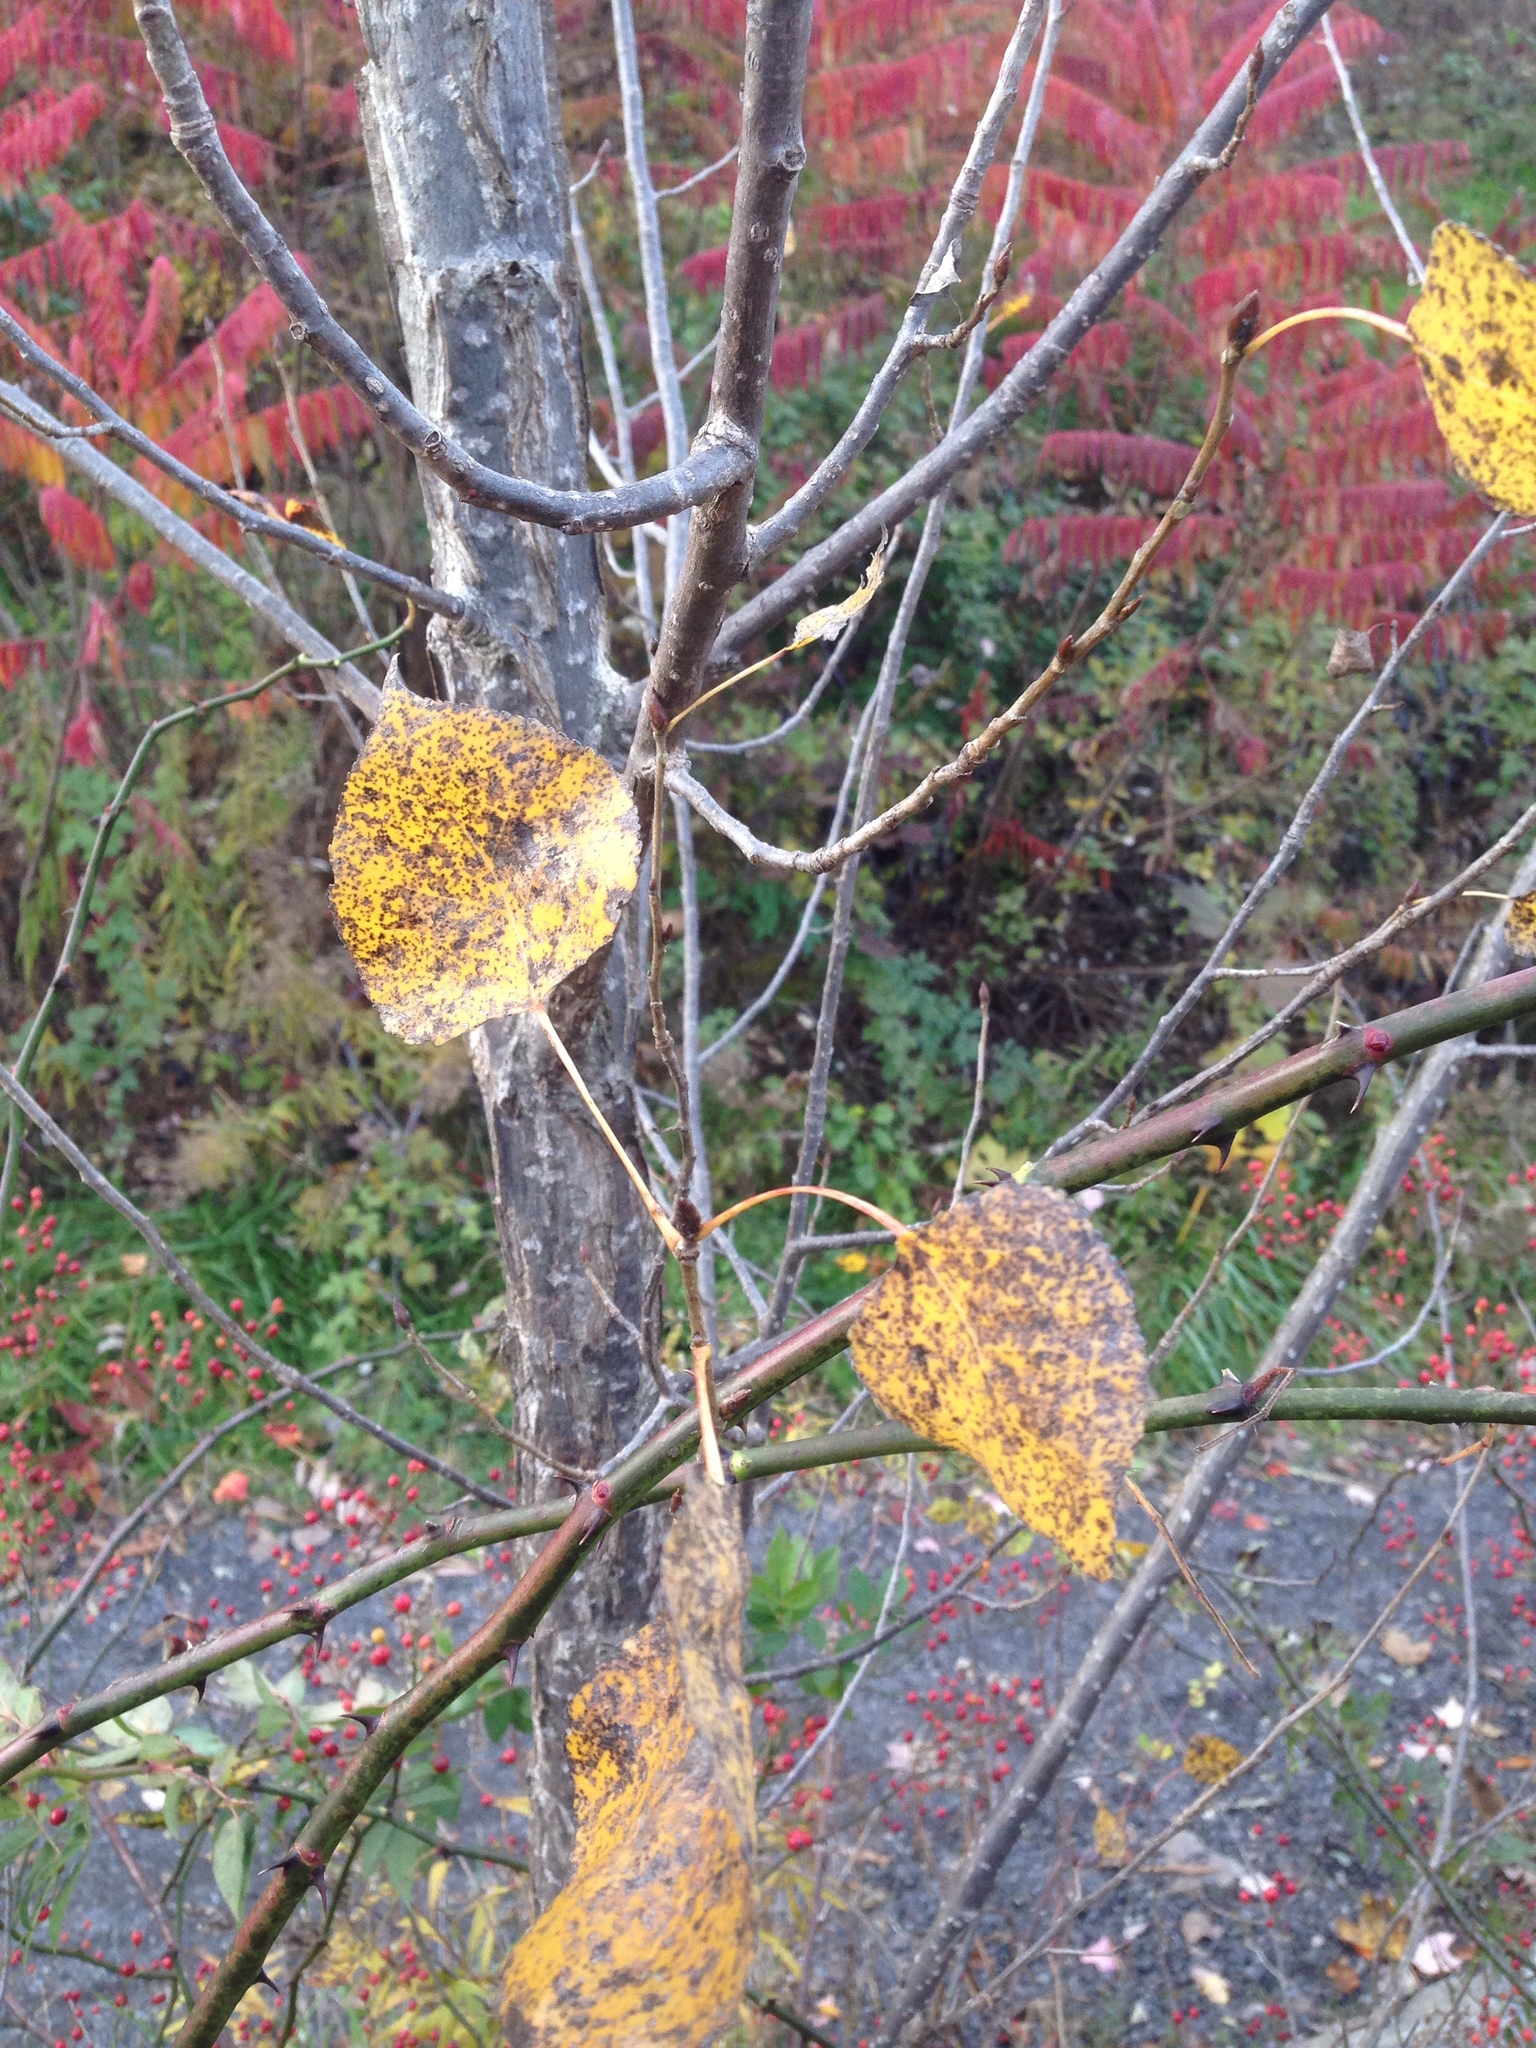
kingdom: Plantae
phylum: Tracheophyta
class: Magnoliopsida
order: Malpighiales
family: Salicaceae
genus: Populus
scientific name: Populus tremuloides
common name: Quaking aspen
